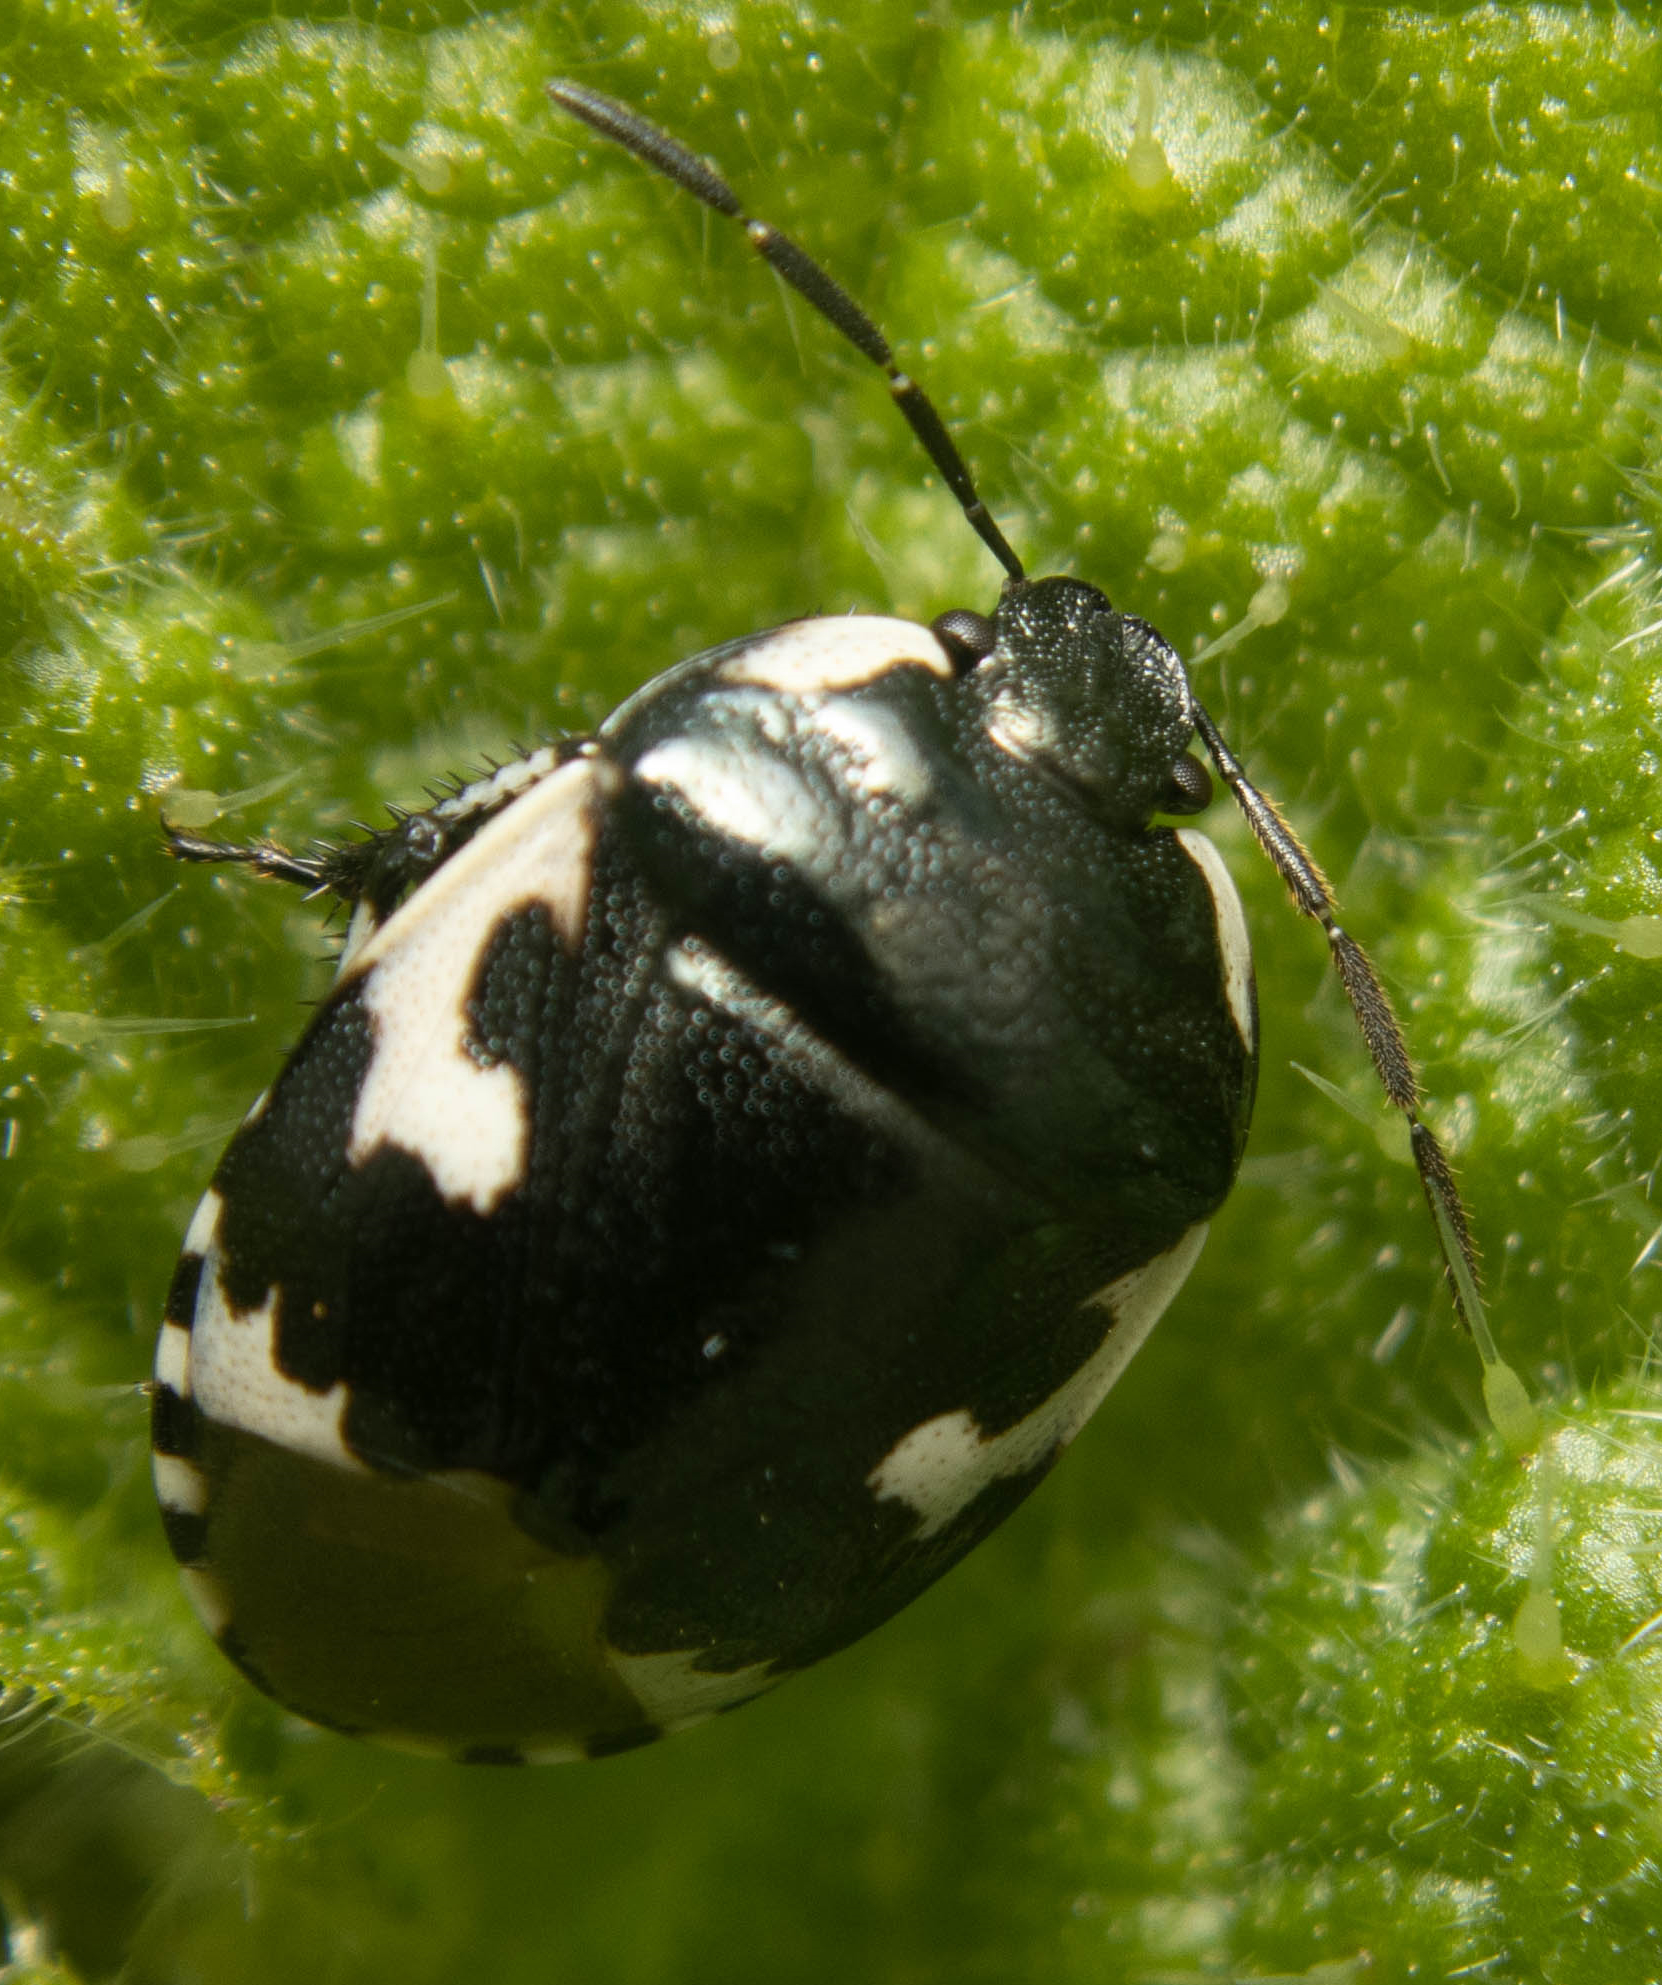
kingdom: Animalia
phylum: Arthropoda
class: Insecta
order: Hemiptera
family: Cydnidae
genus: Tritomegas
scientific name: Tritomegas bicolor
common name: Pied shieldbug
